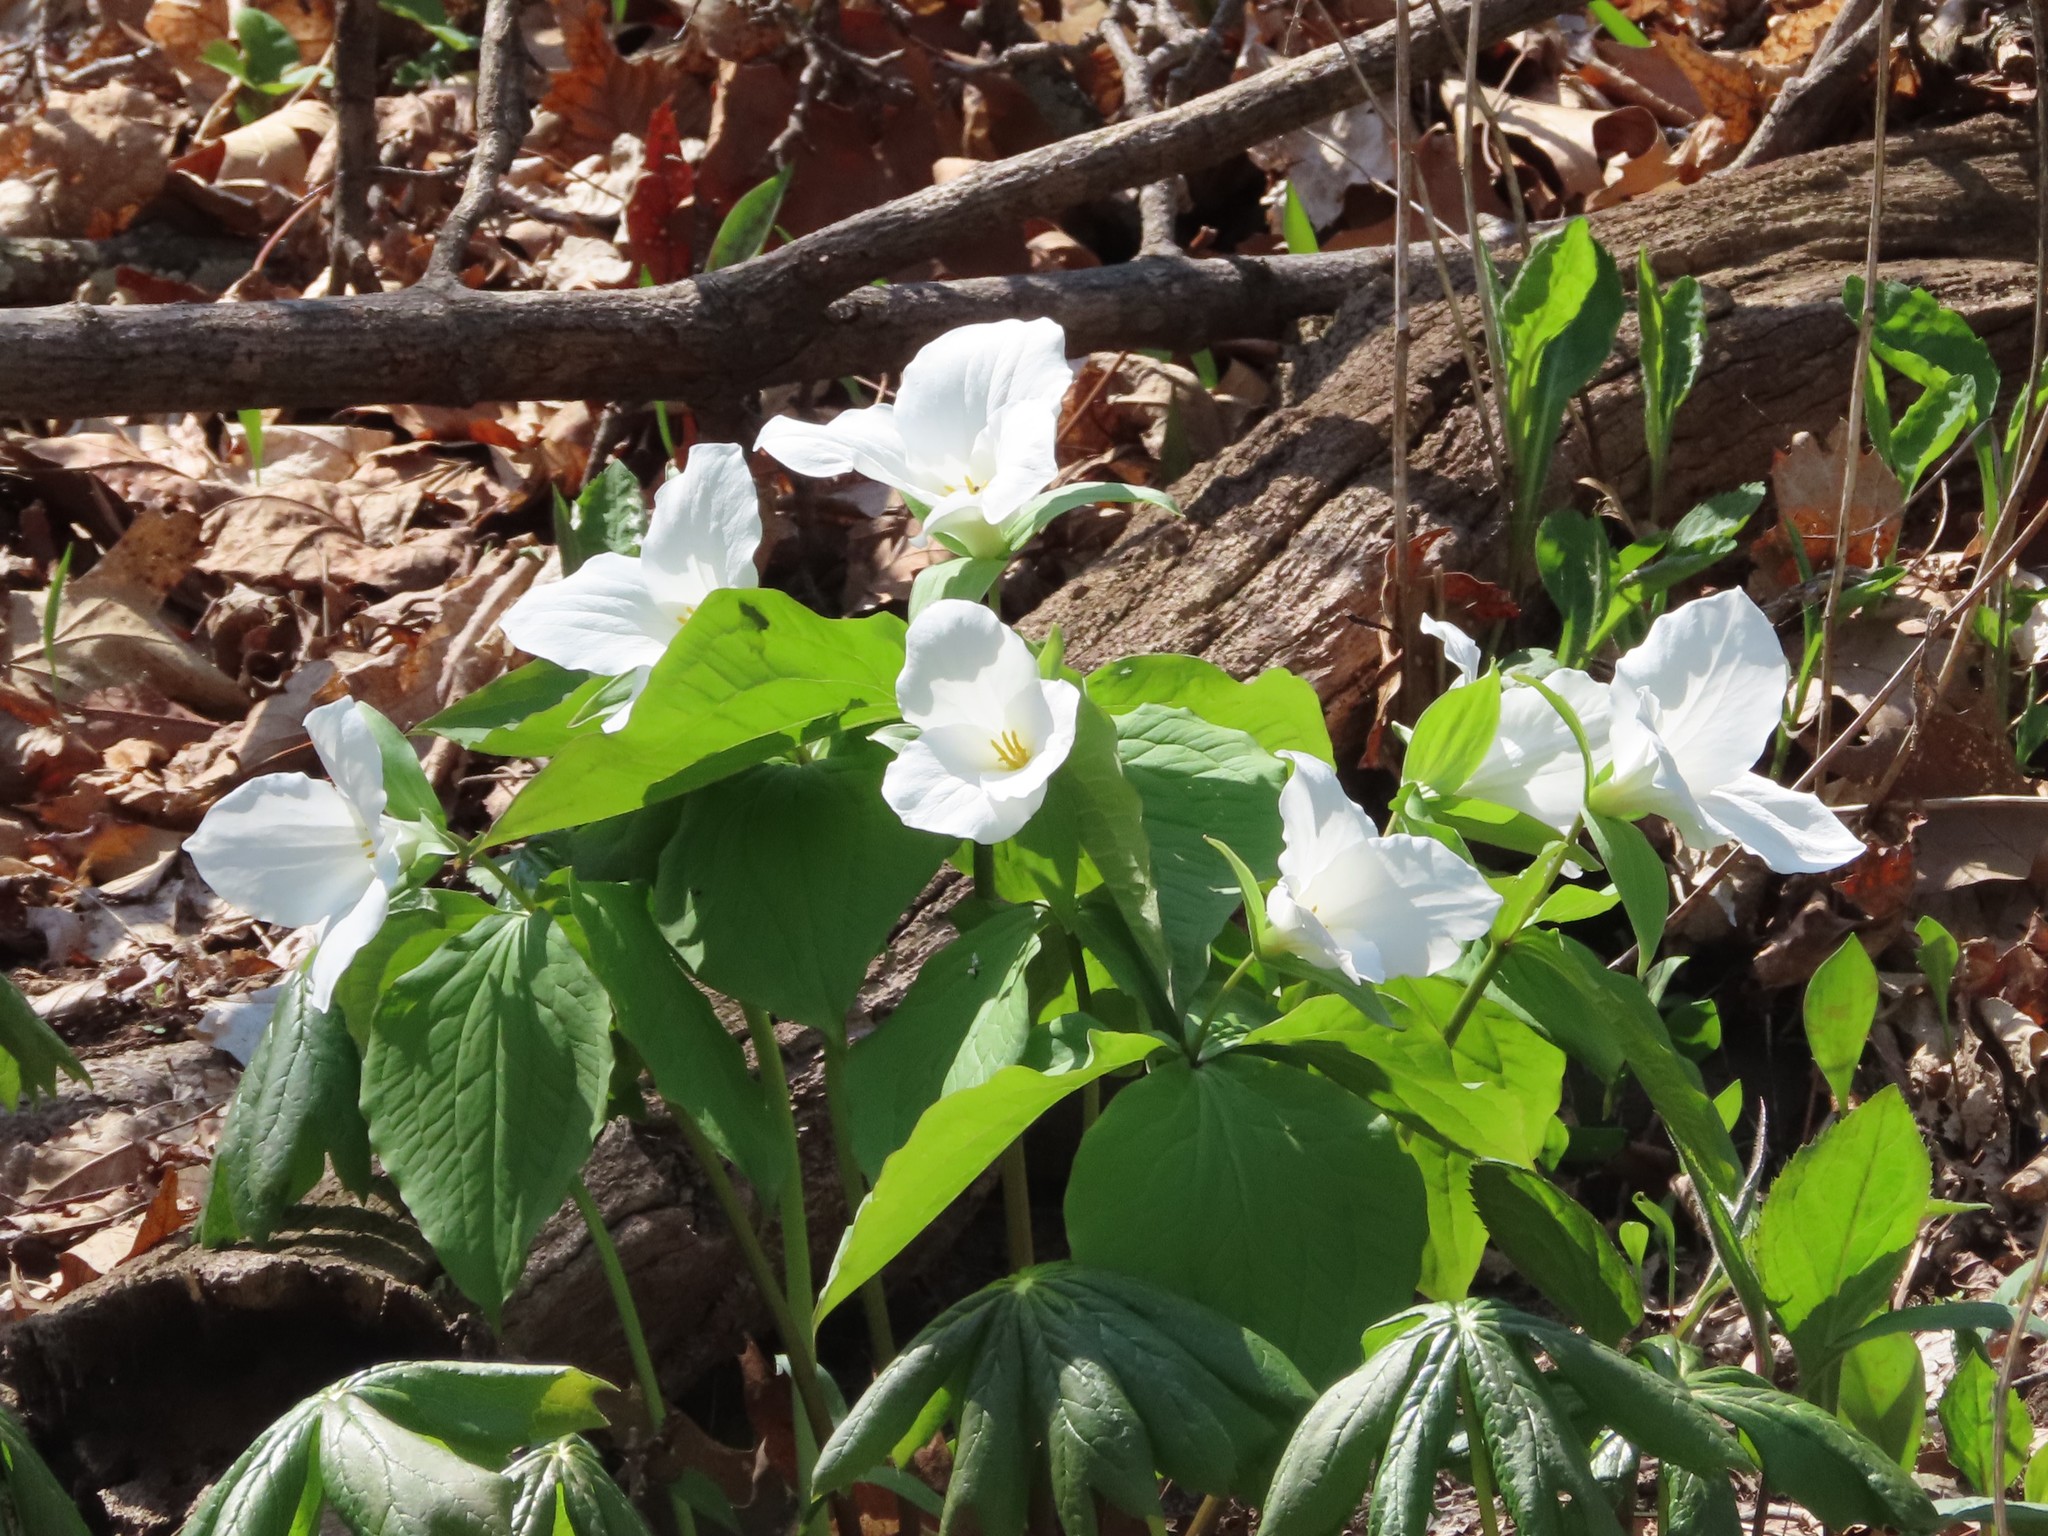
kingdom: Plantae
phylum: Tracheophyta
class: Liliopsida
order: Liliales
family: Melanthiaceae
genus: Trillium
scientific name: Trillium grandiflorum
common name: Great white trillium
